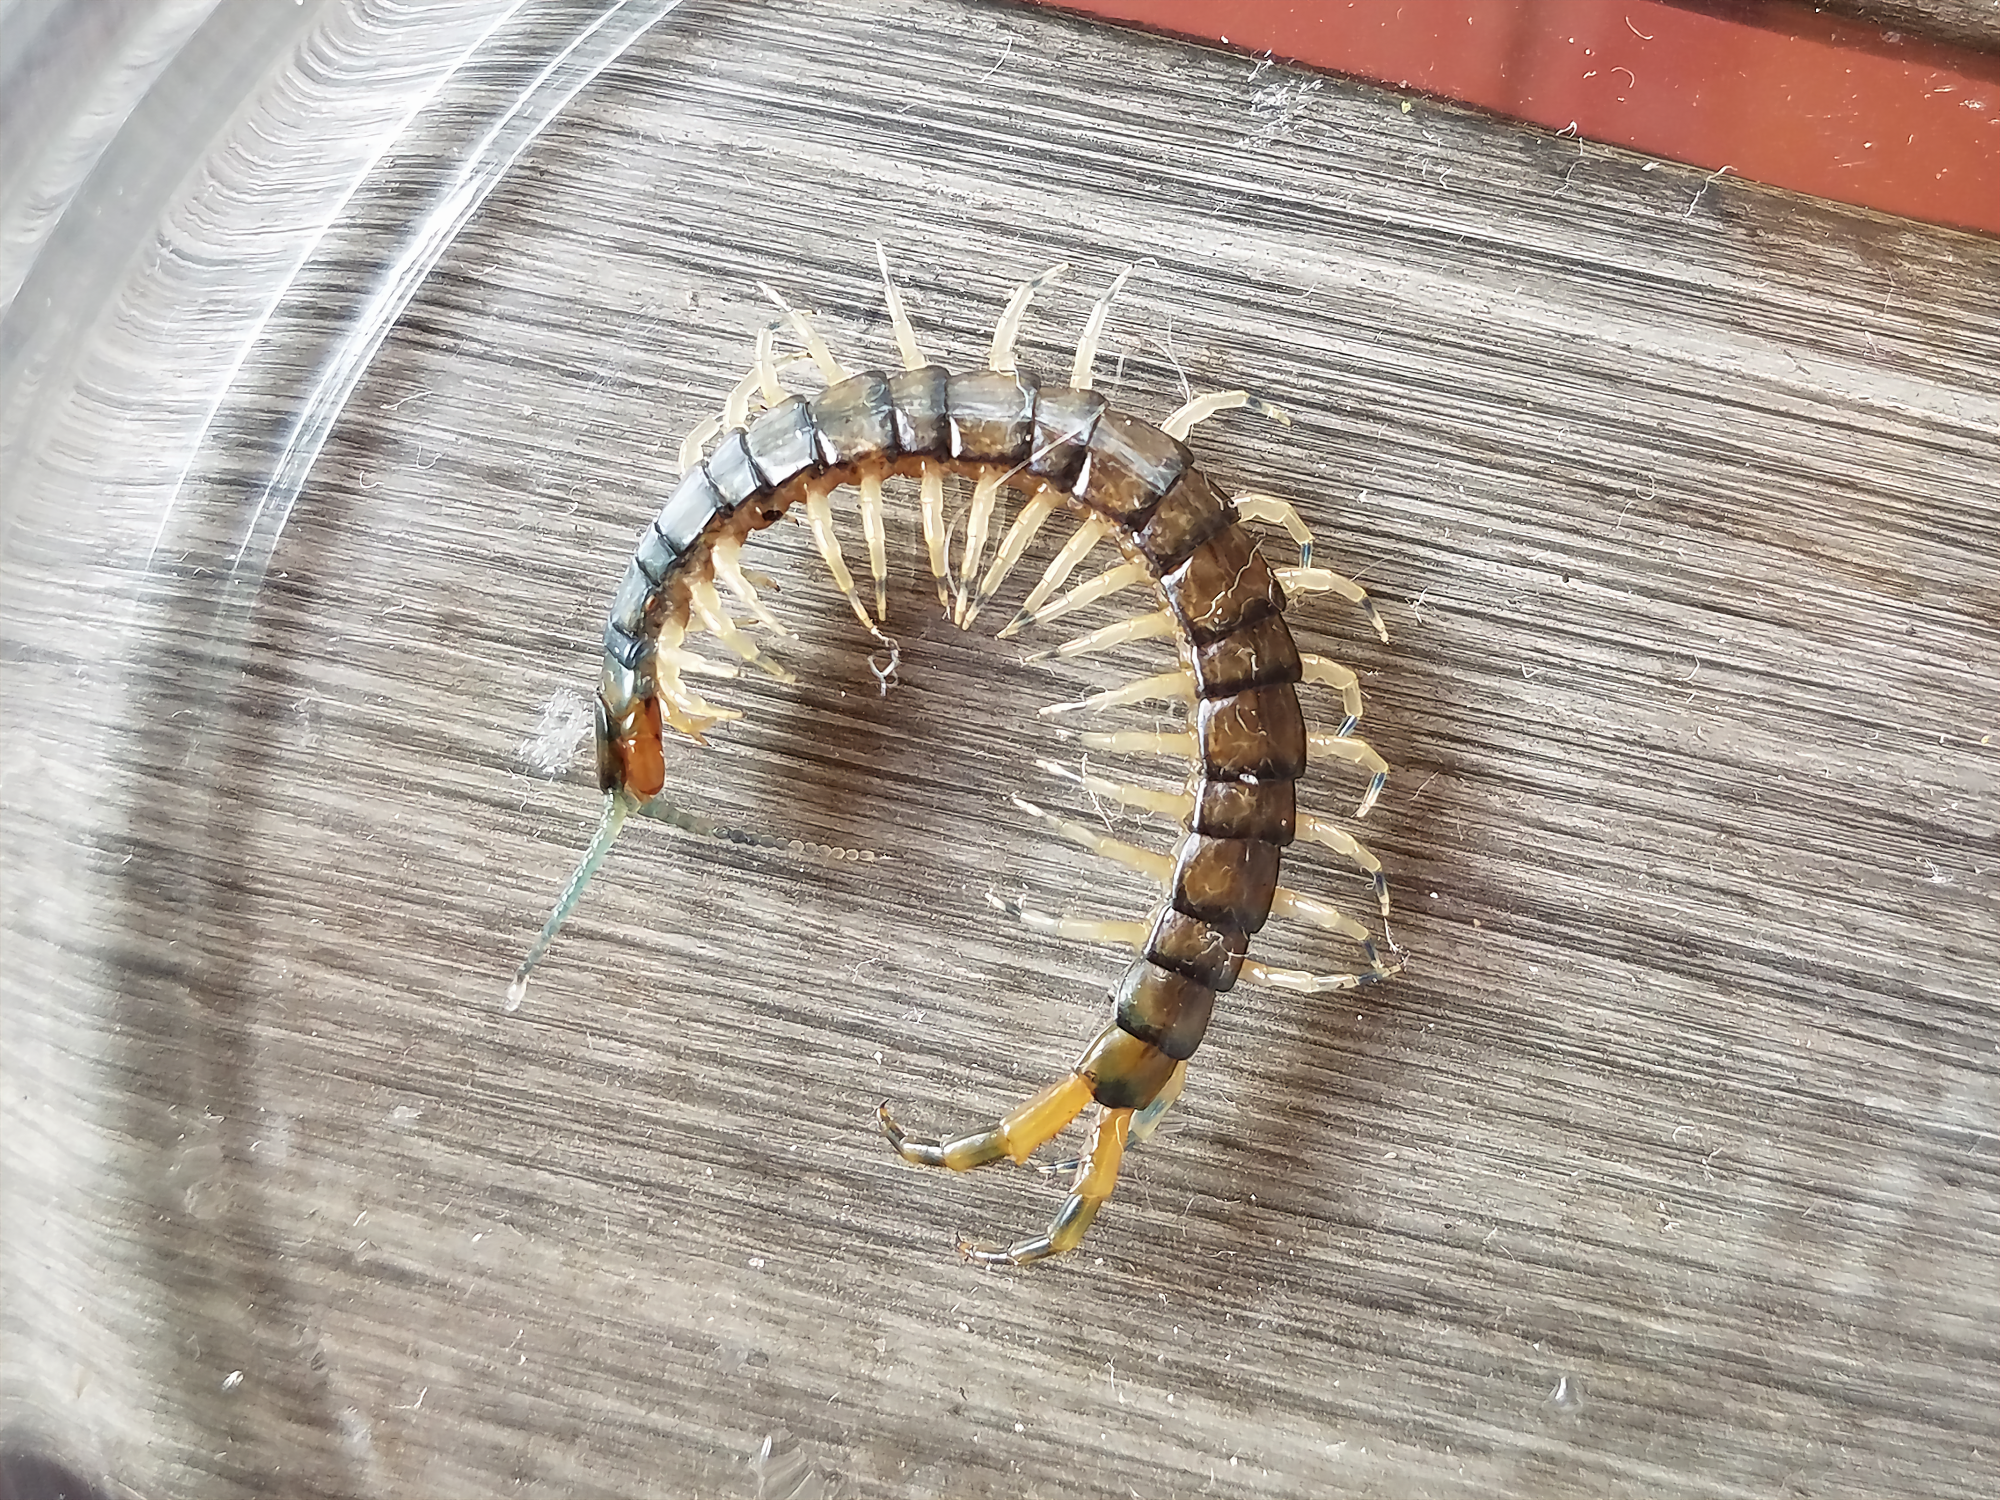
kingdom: Animalia
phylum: Arthropoda
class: Chilopoda
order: Scolopendromorpha
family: Scolopendridae
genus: Hemiscolopendra
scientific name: Hemiscolopendra marginata
